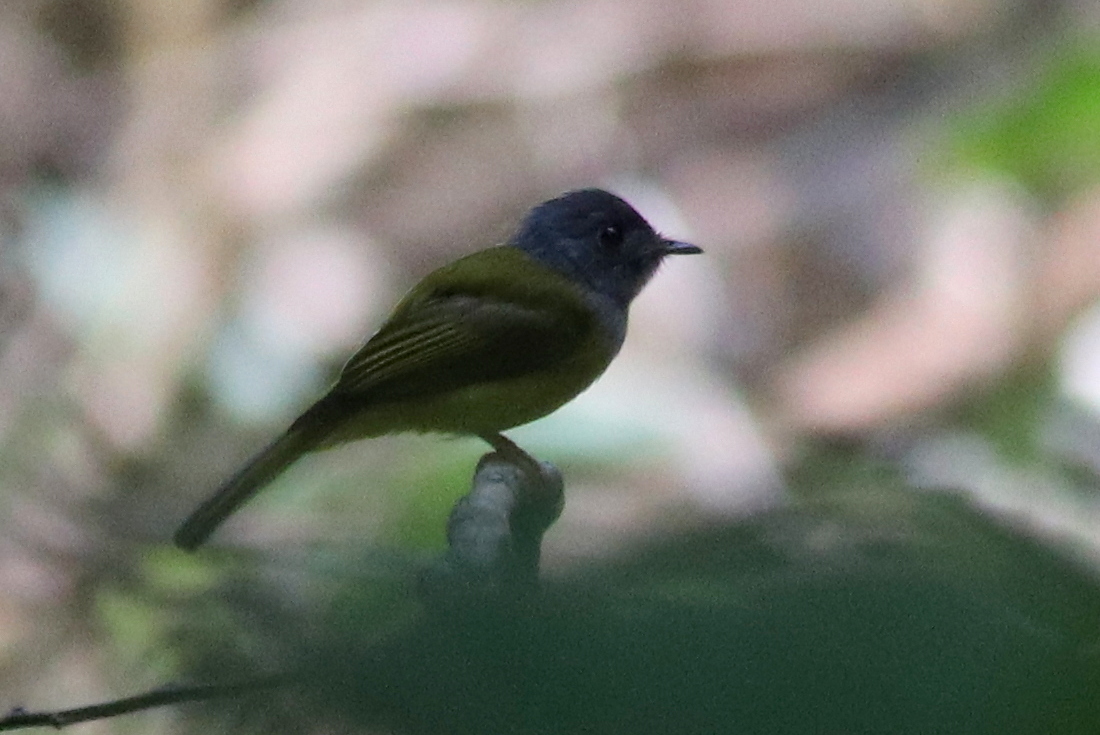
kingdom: Animalia
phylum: Chordata
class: Aves
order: Passeriformes
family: Stenostiridae
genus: Culicicapa
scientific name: Culicicapa ceylonensis
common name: Grey-headed canary-flycatcher
